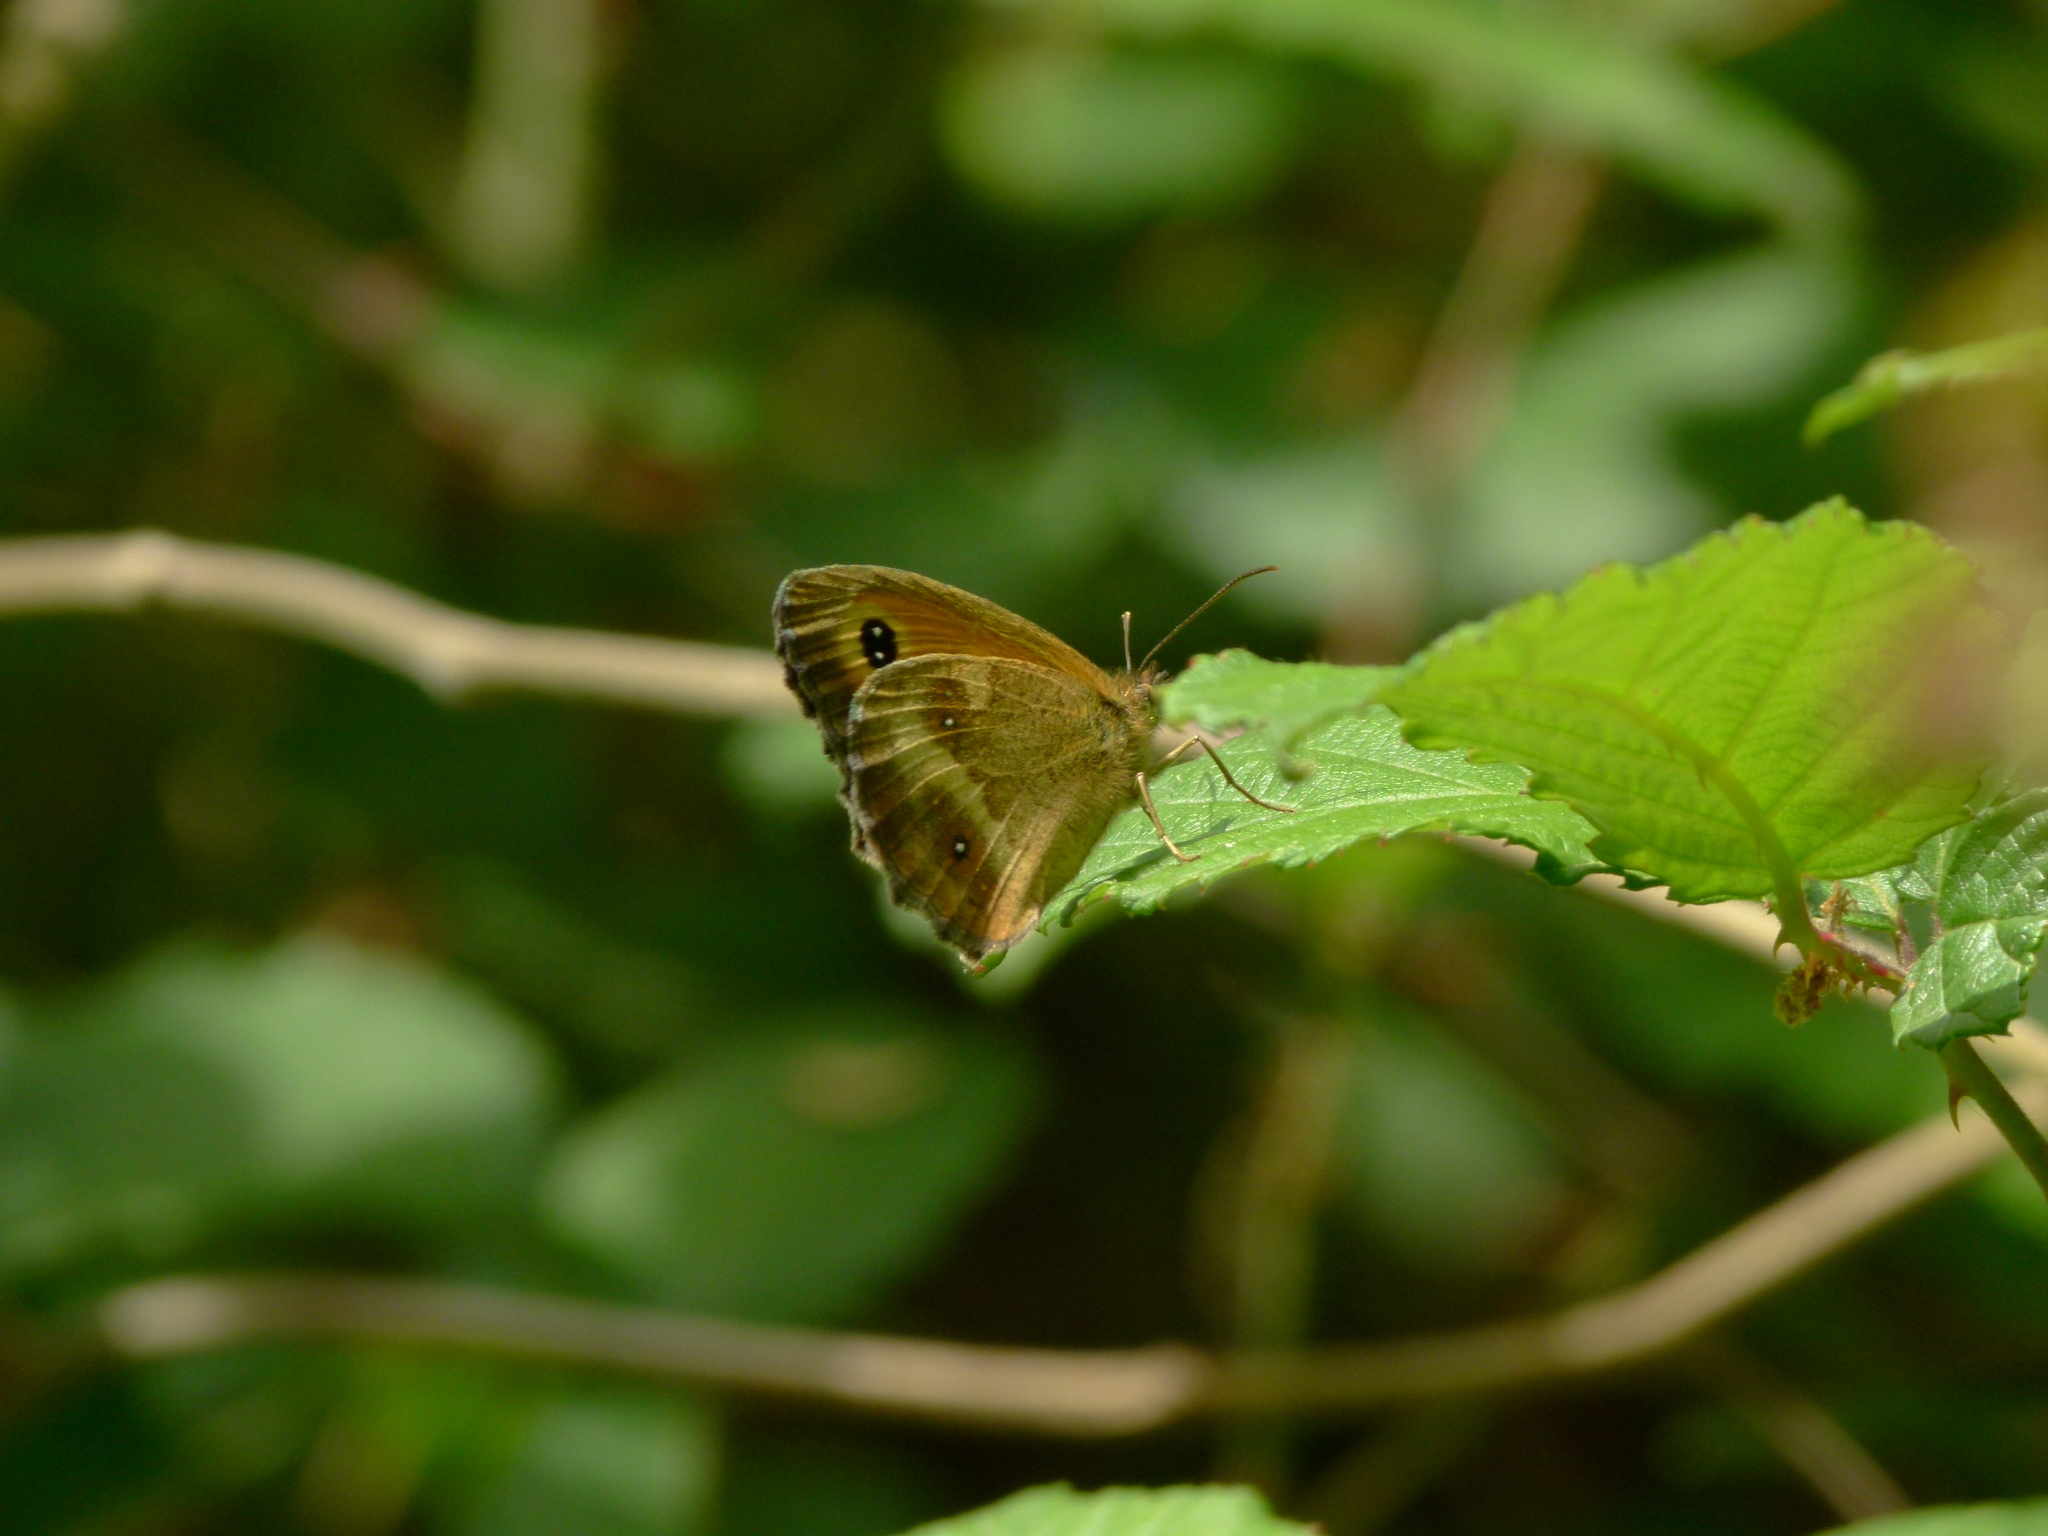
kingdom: Animalia
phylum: Arthropoda
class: Insecta
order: Lepidoptera
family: Nymphalidae
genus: Pyronia
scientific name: Pyronia tithonus
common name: Gatekeeper
